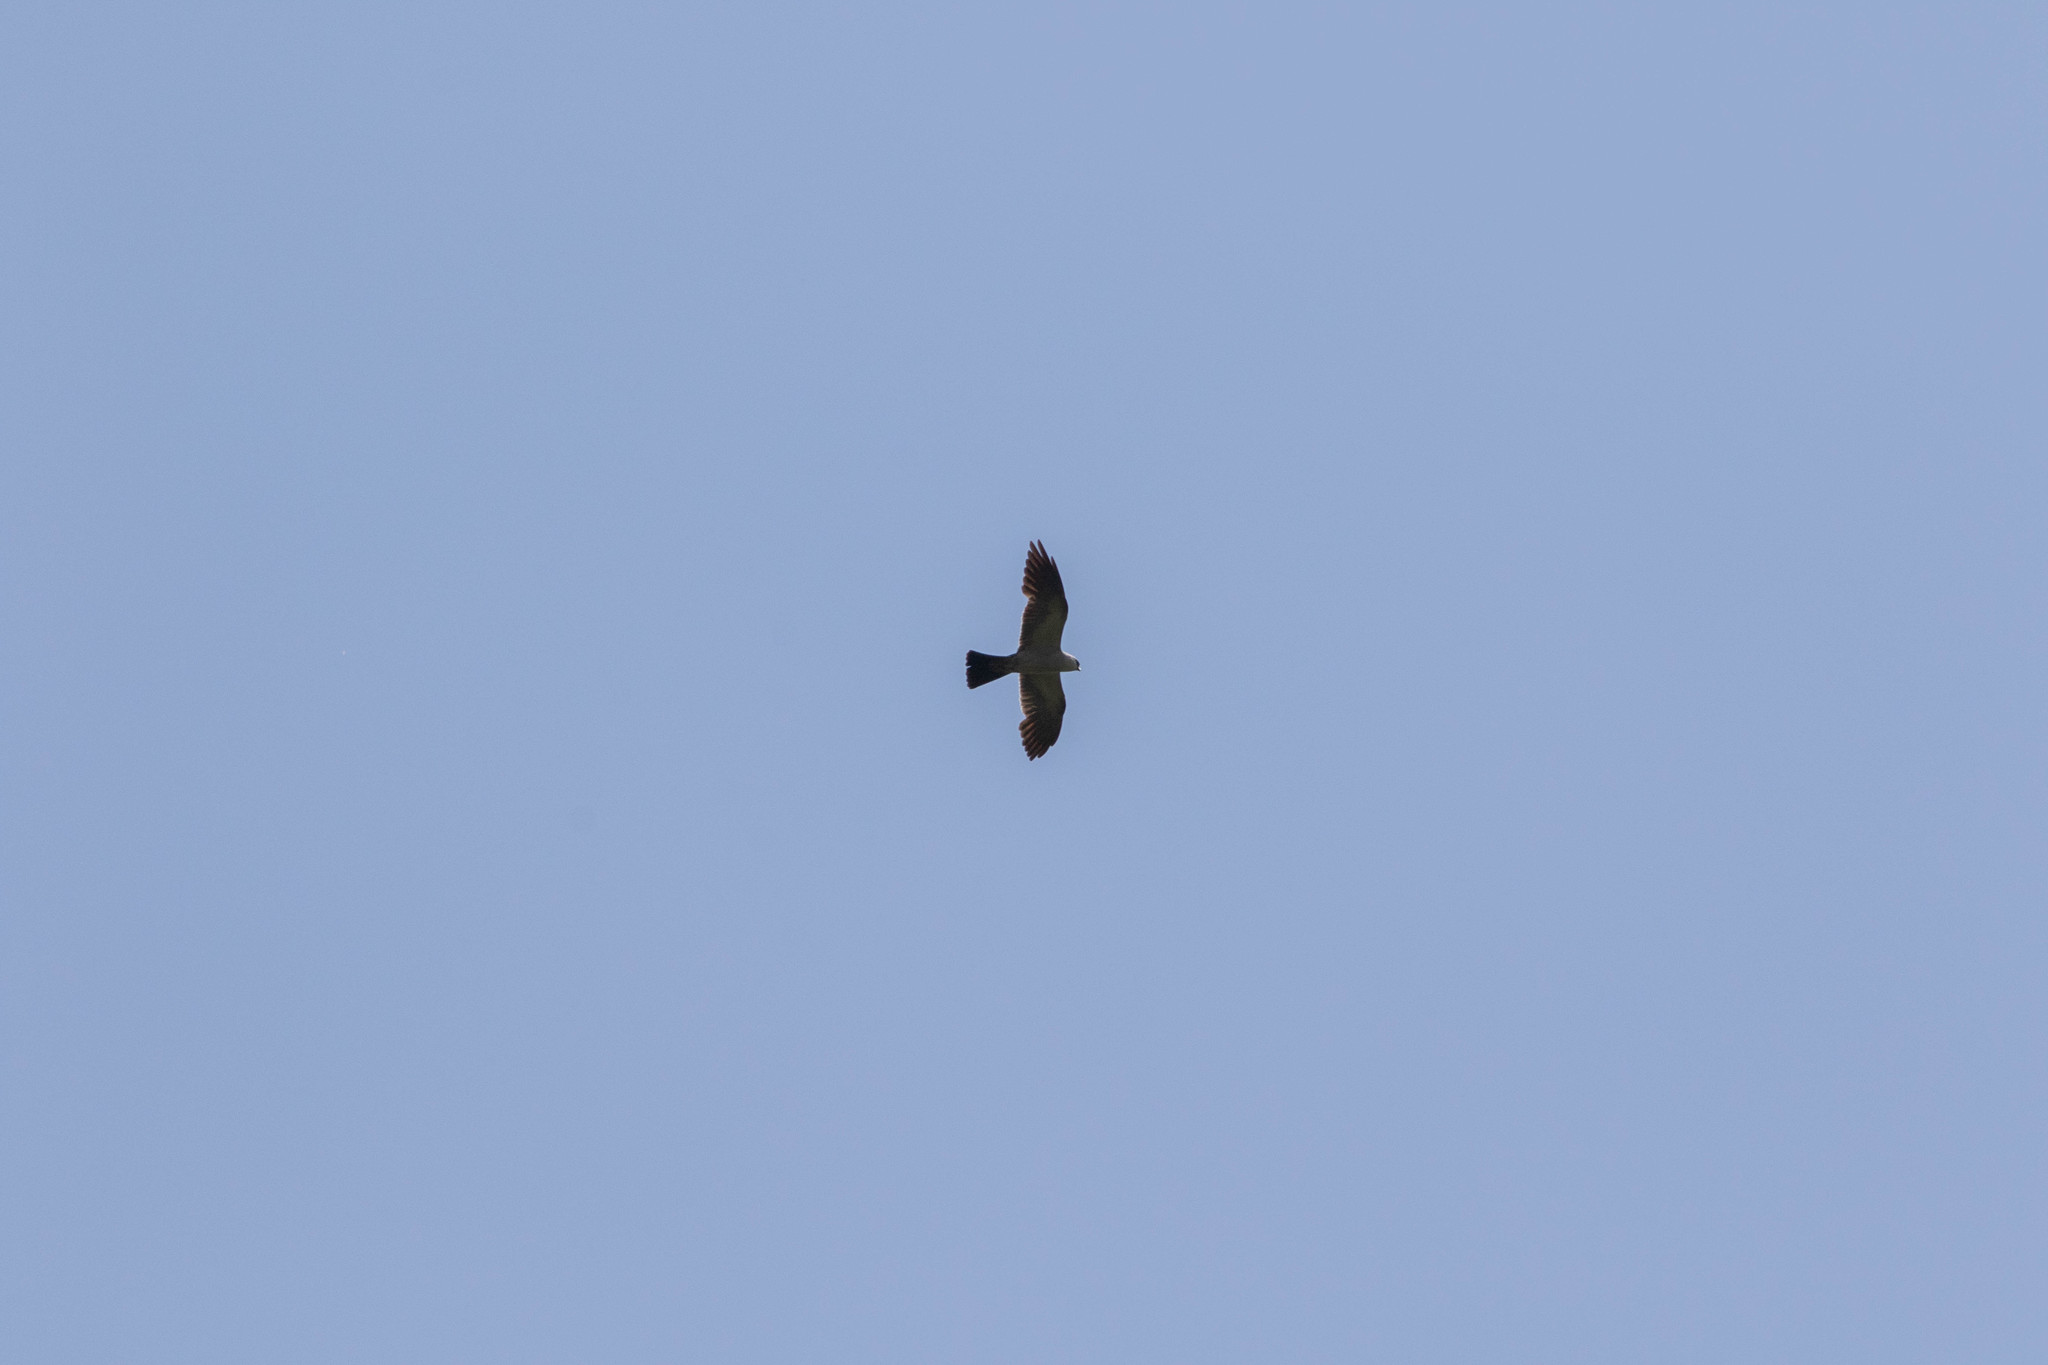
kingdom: Animalia
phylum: Chordata
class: Aves
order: Accipitriformes
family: Accipitridae
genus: Ictinia
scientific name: Ictinia mississippiensis
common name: Mississippi kite
